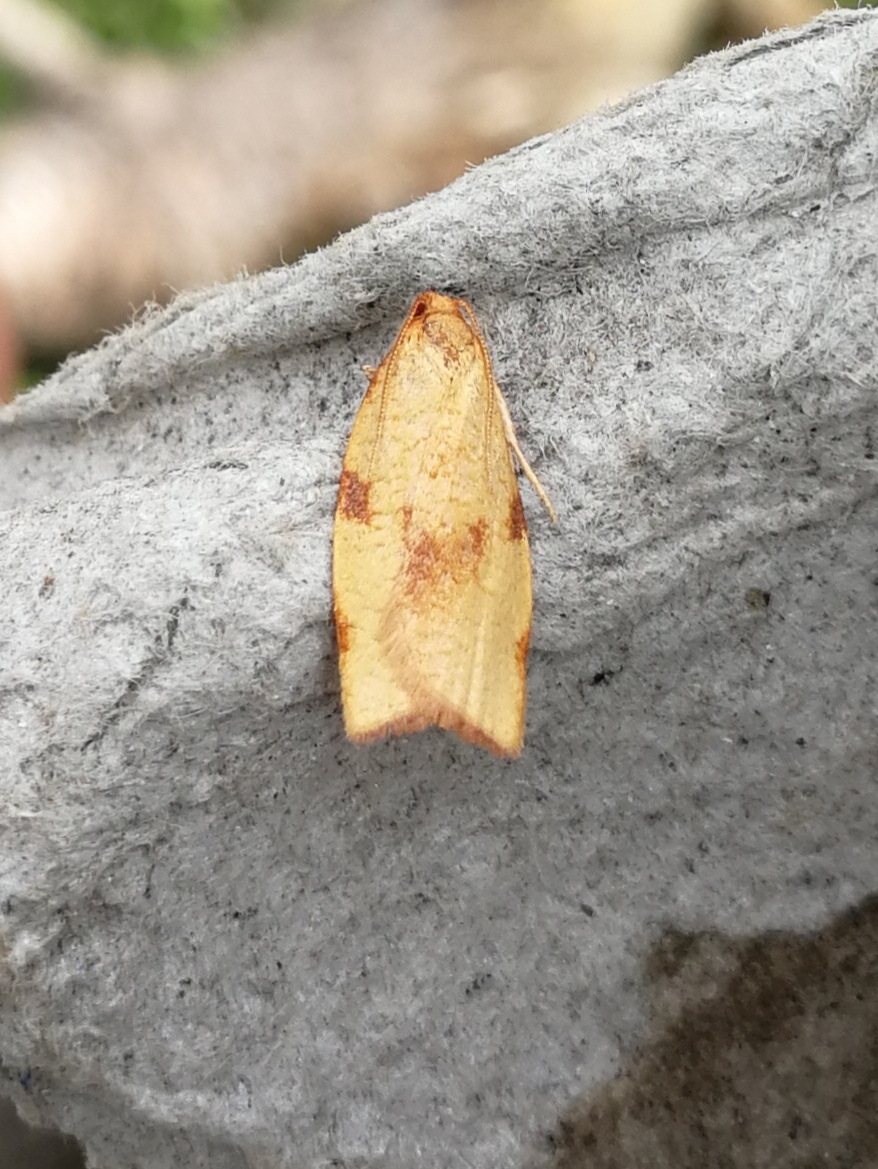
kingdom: Animalia
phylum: Arthropoda
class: Insecta
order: Lepidoptera
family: Tortricidae
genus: Lozotaenia
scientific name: Lozotaenia cupidinana
